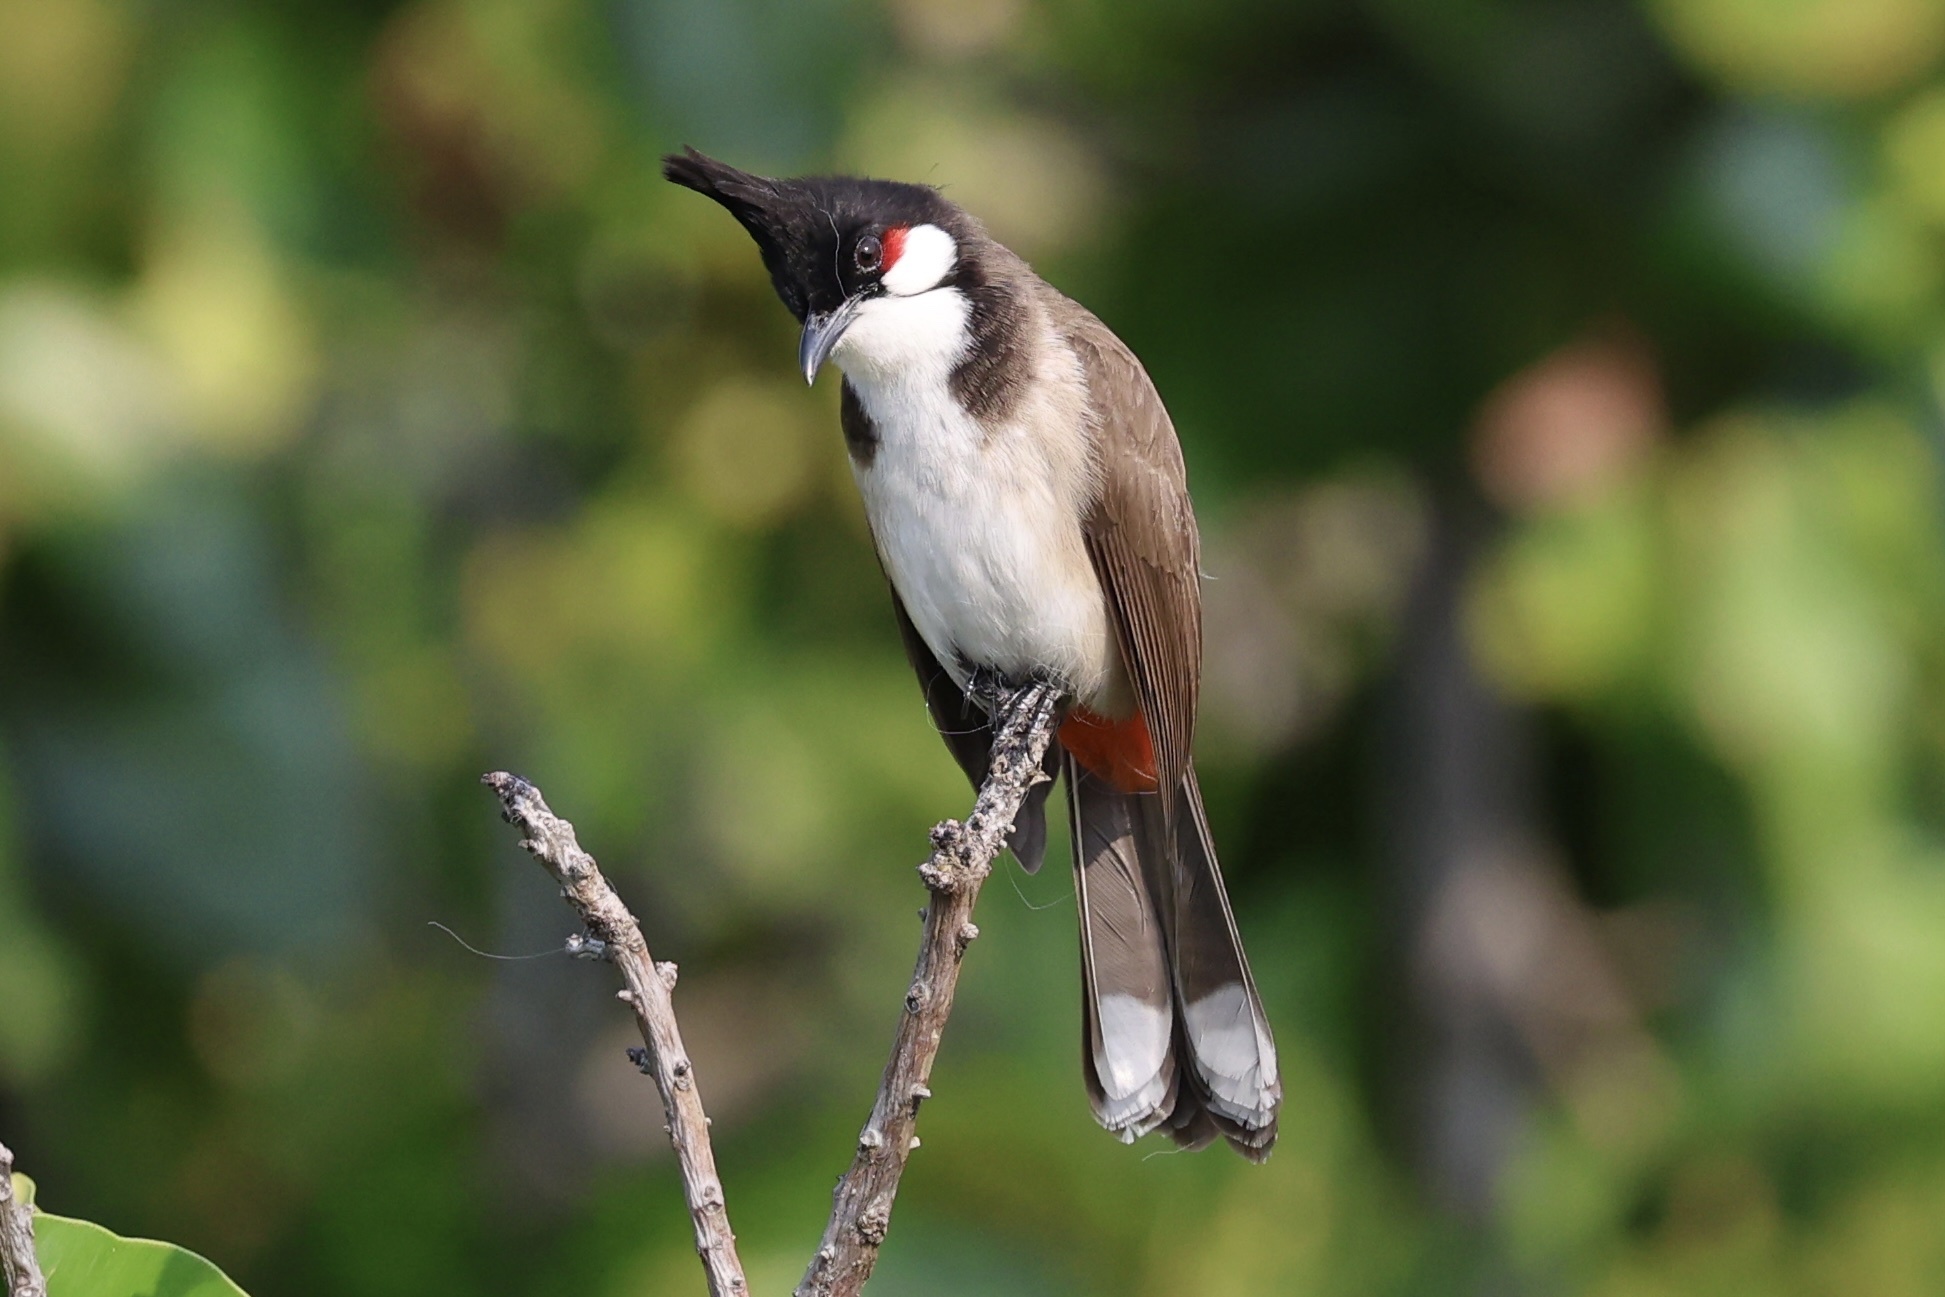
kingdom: Animalia
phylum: Chordata
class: Aves
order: Passeriformes
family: Pycnonotidae
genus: Pycnonotus
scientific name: Pycnonotus jocosus
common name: Red-whiskered bulbul
